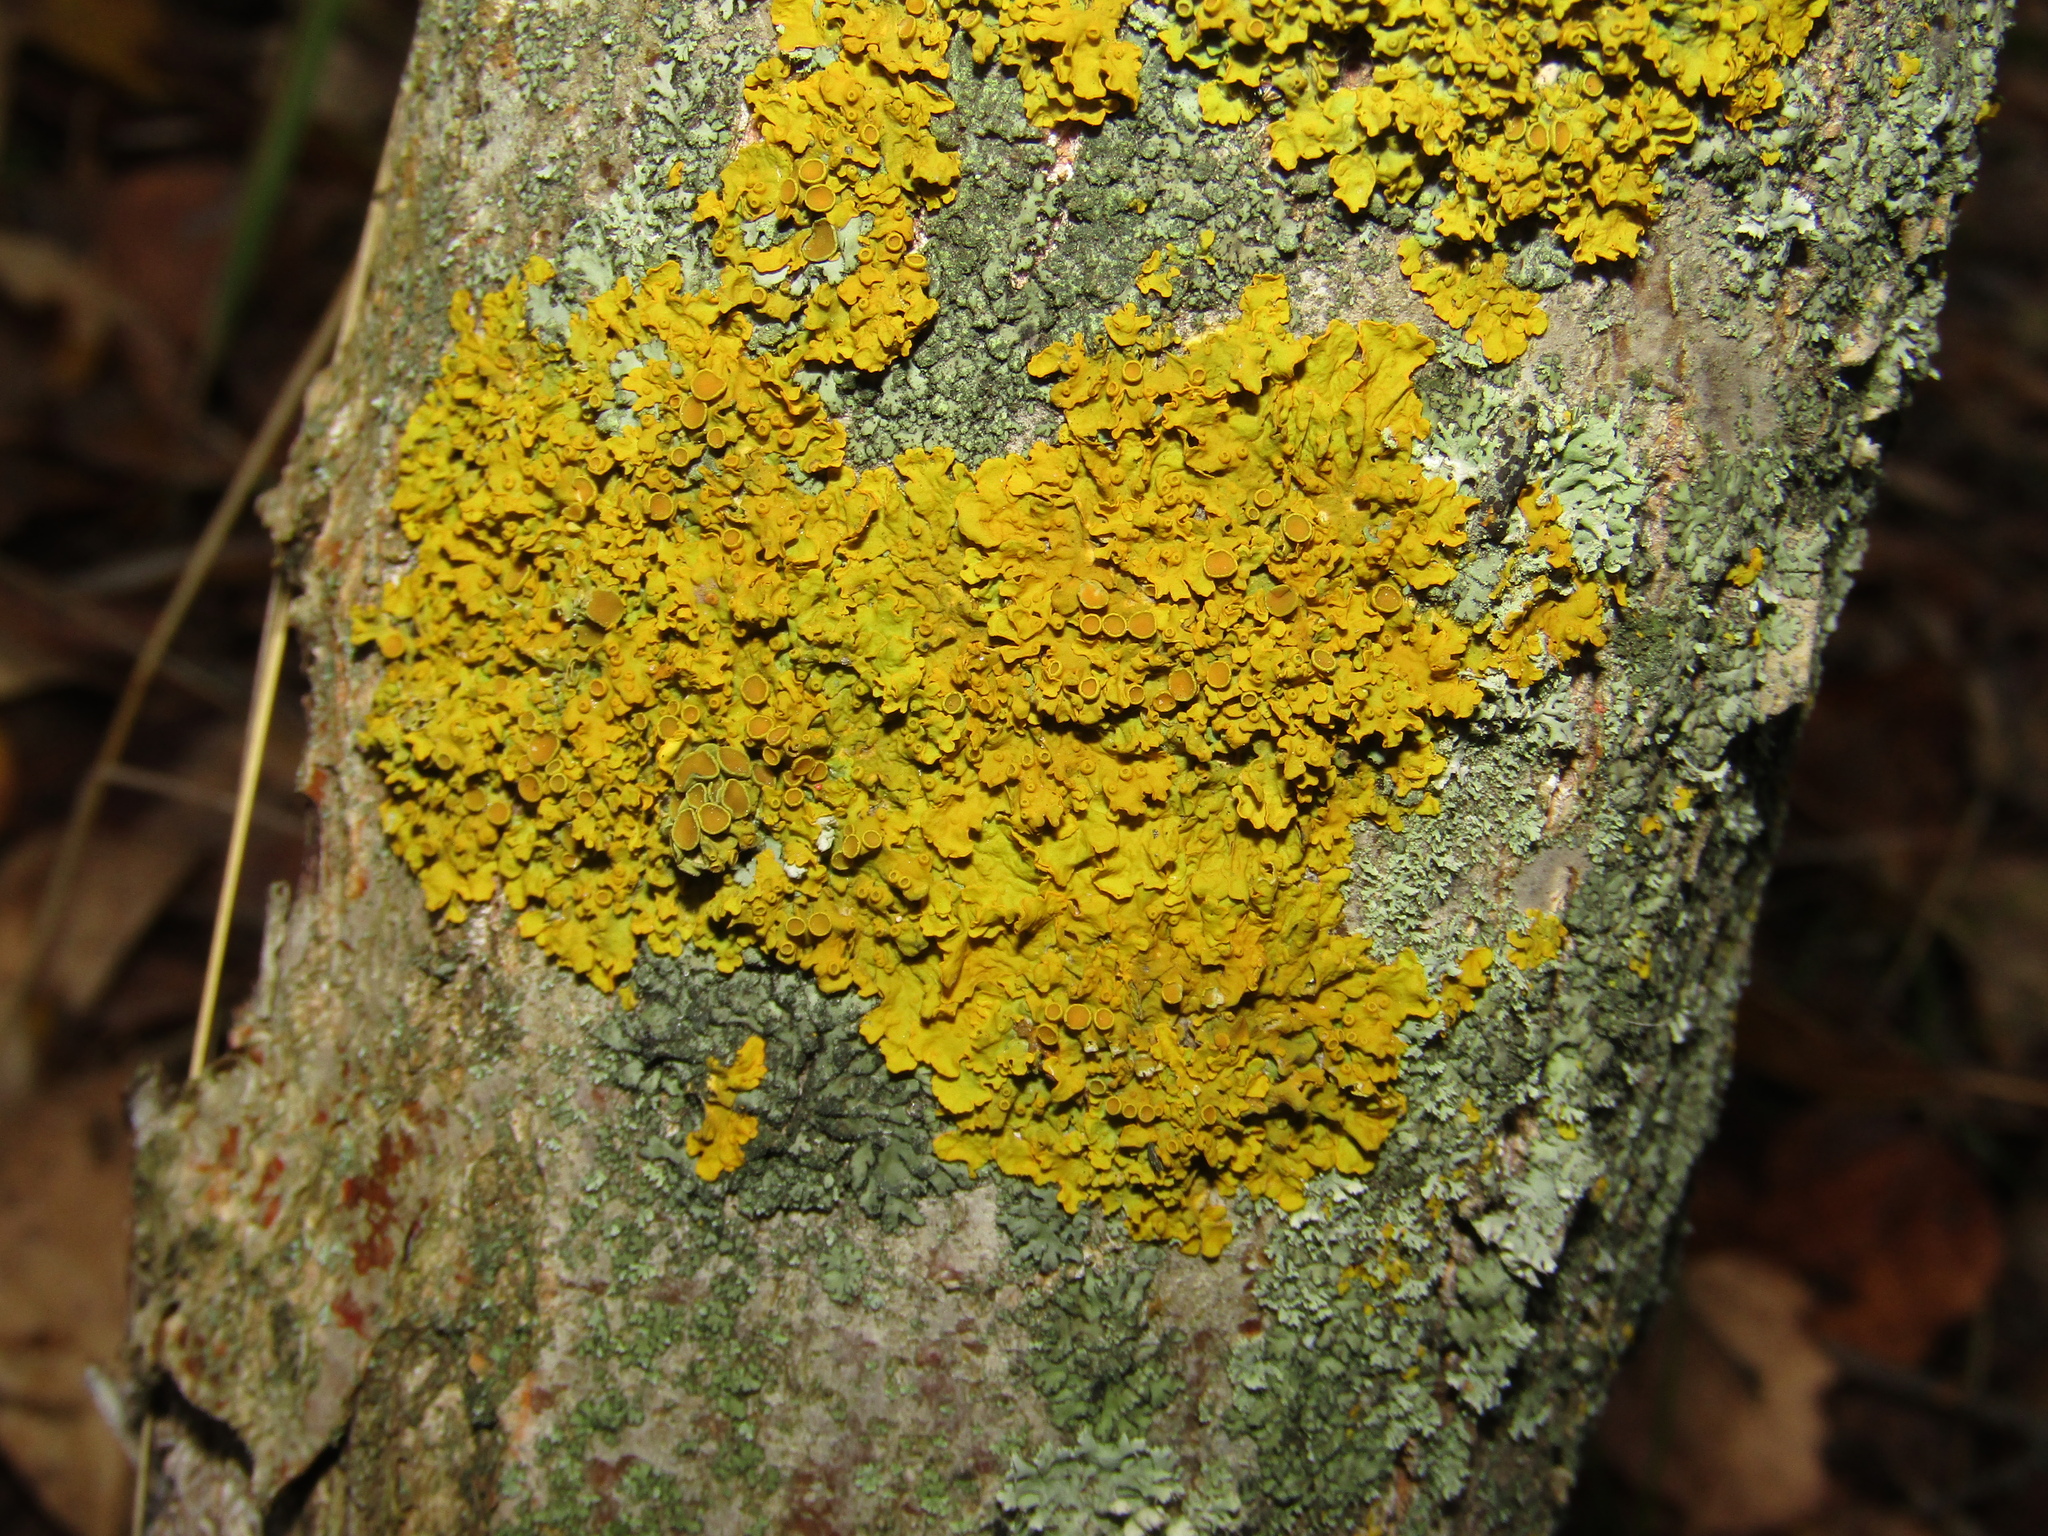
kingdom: Fungi
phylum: Ascomycota
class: Lecanoromycetes
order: Teloschistales
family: Teloschistaceae
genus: Xanthoria
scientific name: Xanthoria parietina
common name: Common orange lichen
